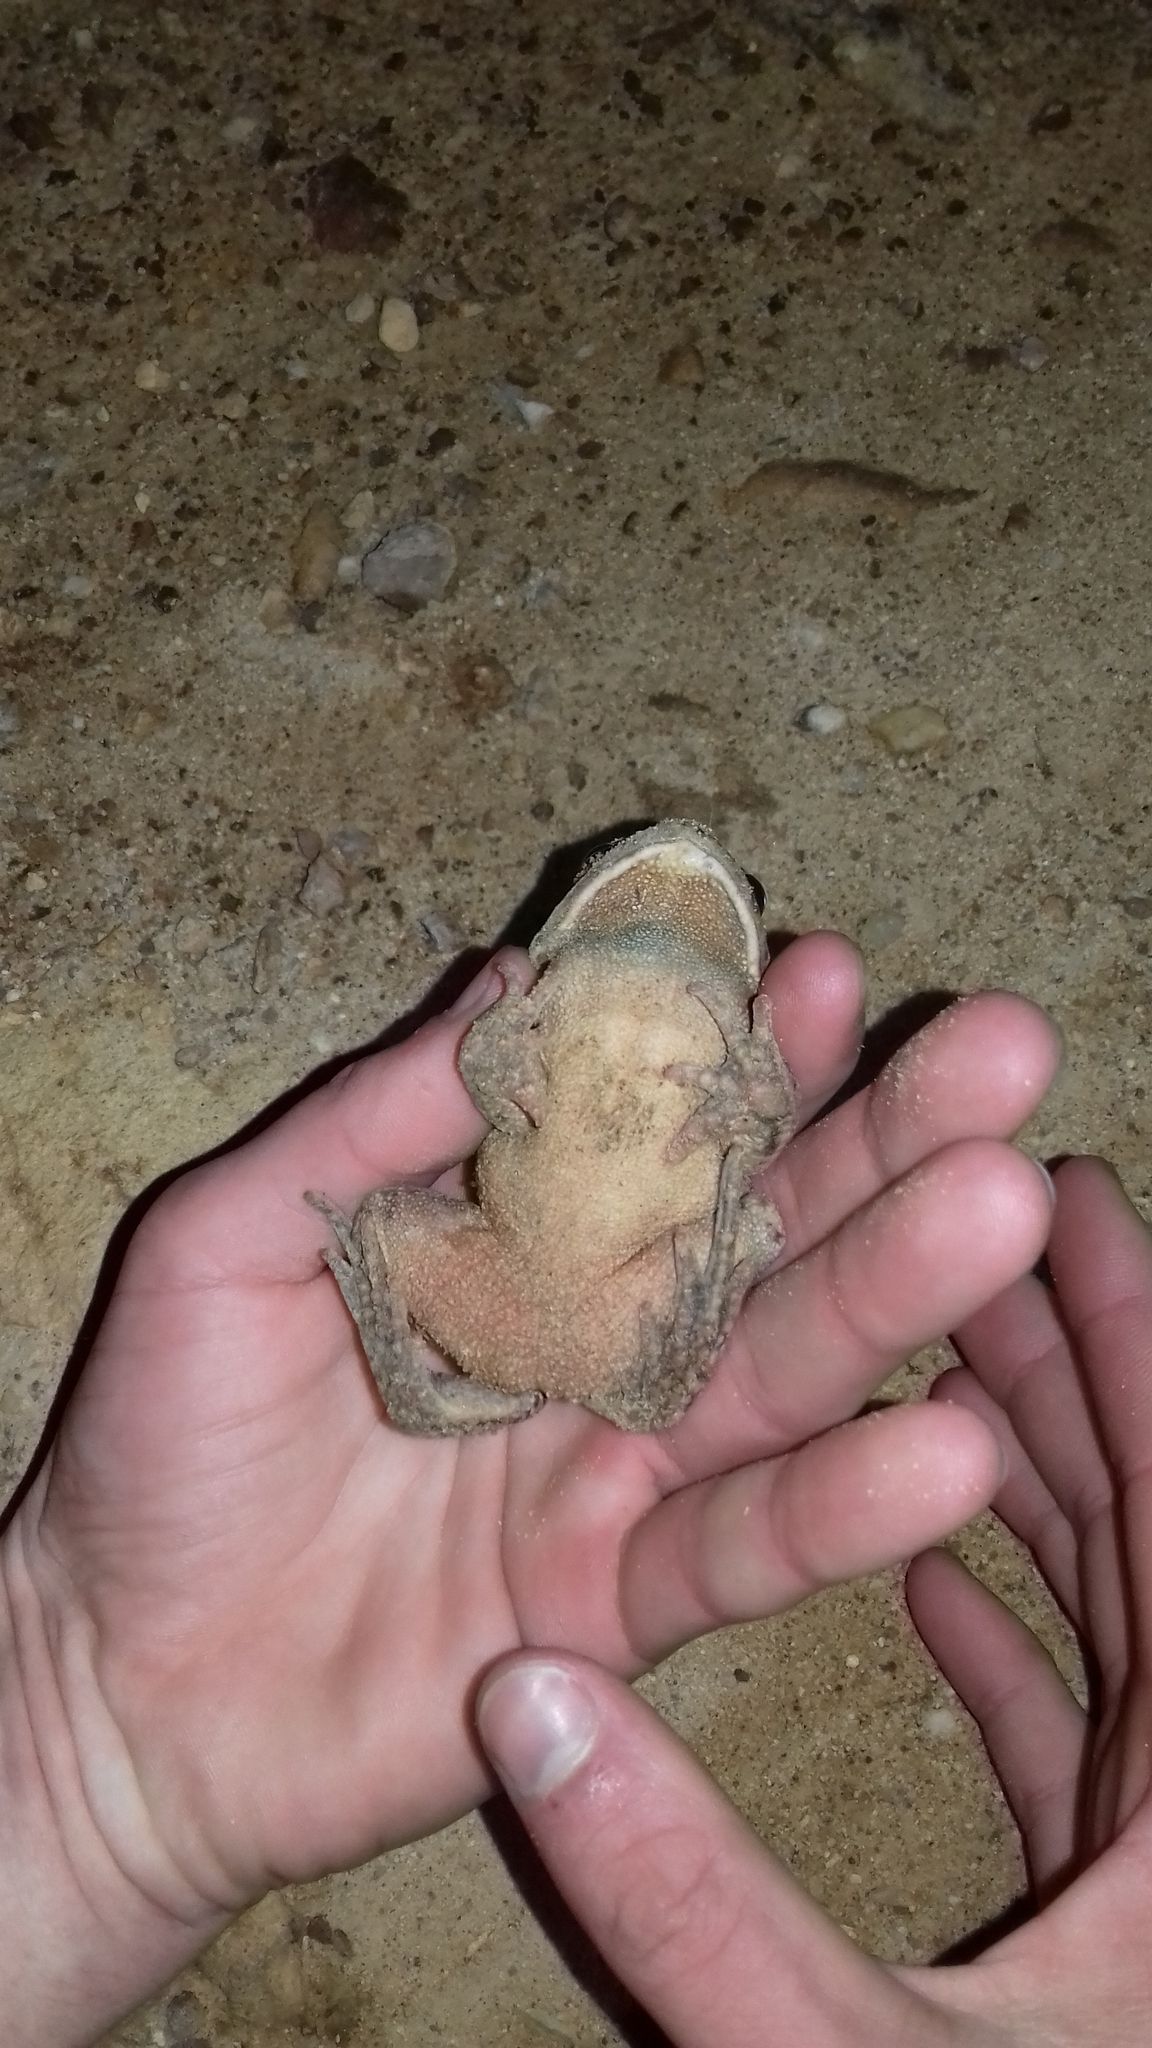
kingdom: Animalia
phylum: Chordata
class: Amphibia
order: Anura
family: Bufonidae
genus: Sclerophrys
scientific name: Sclerophrys capensis
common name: Ranger’s toad
